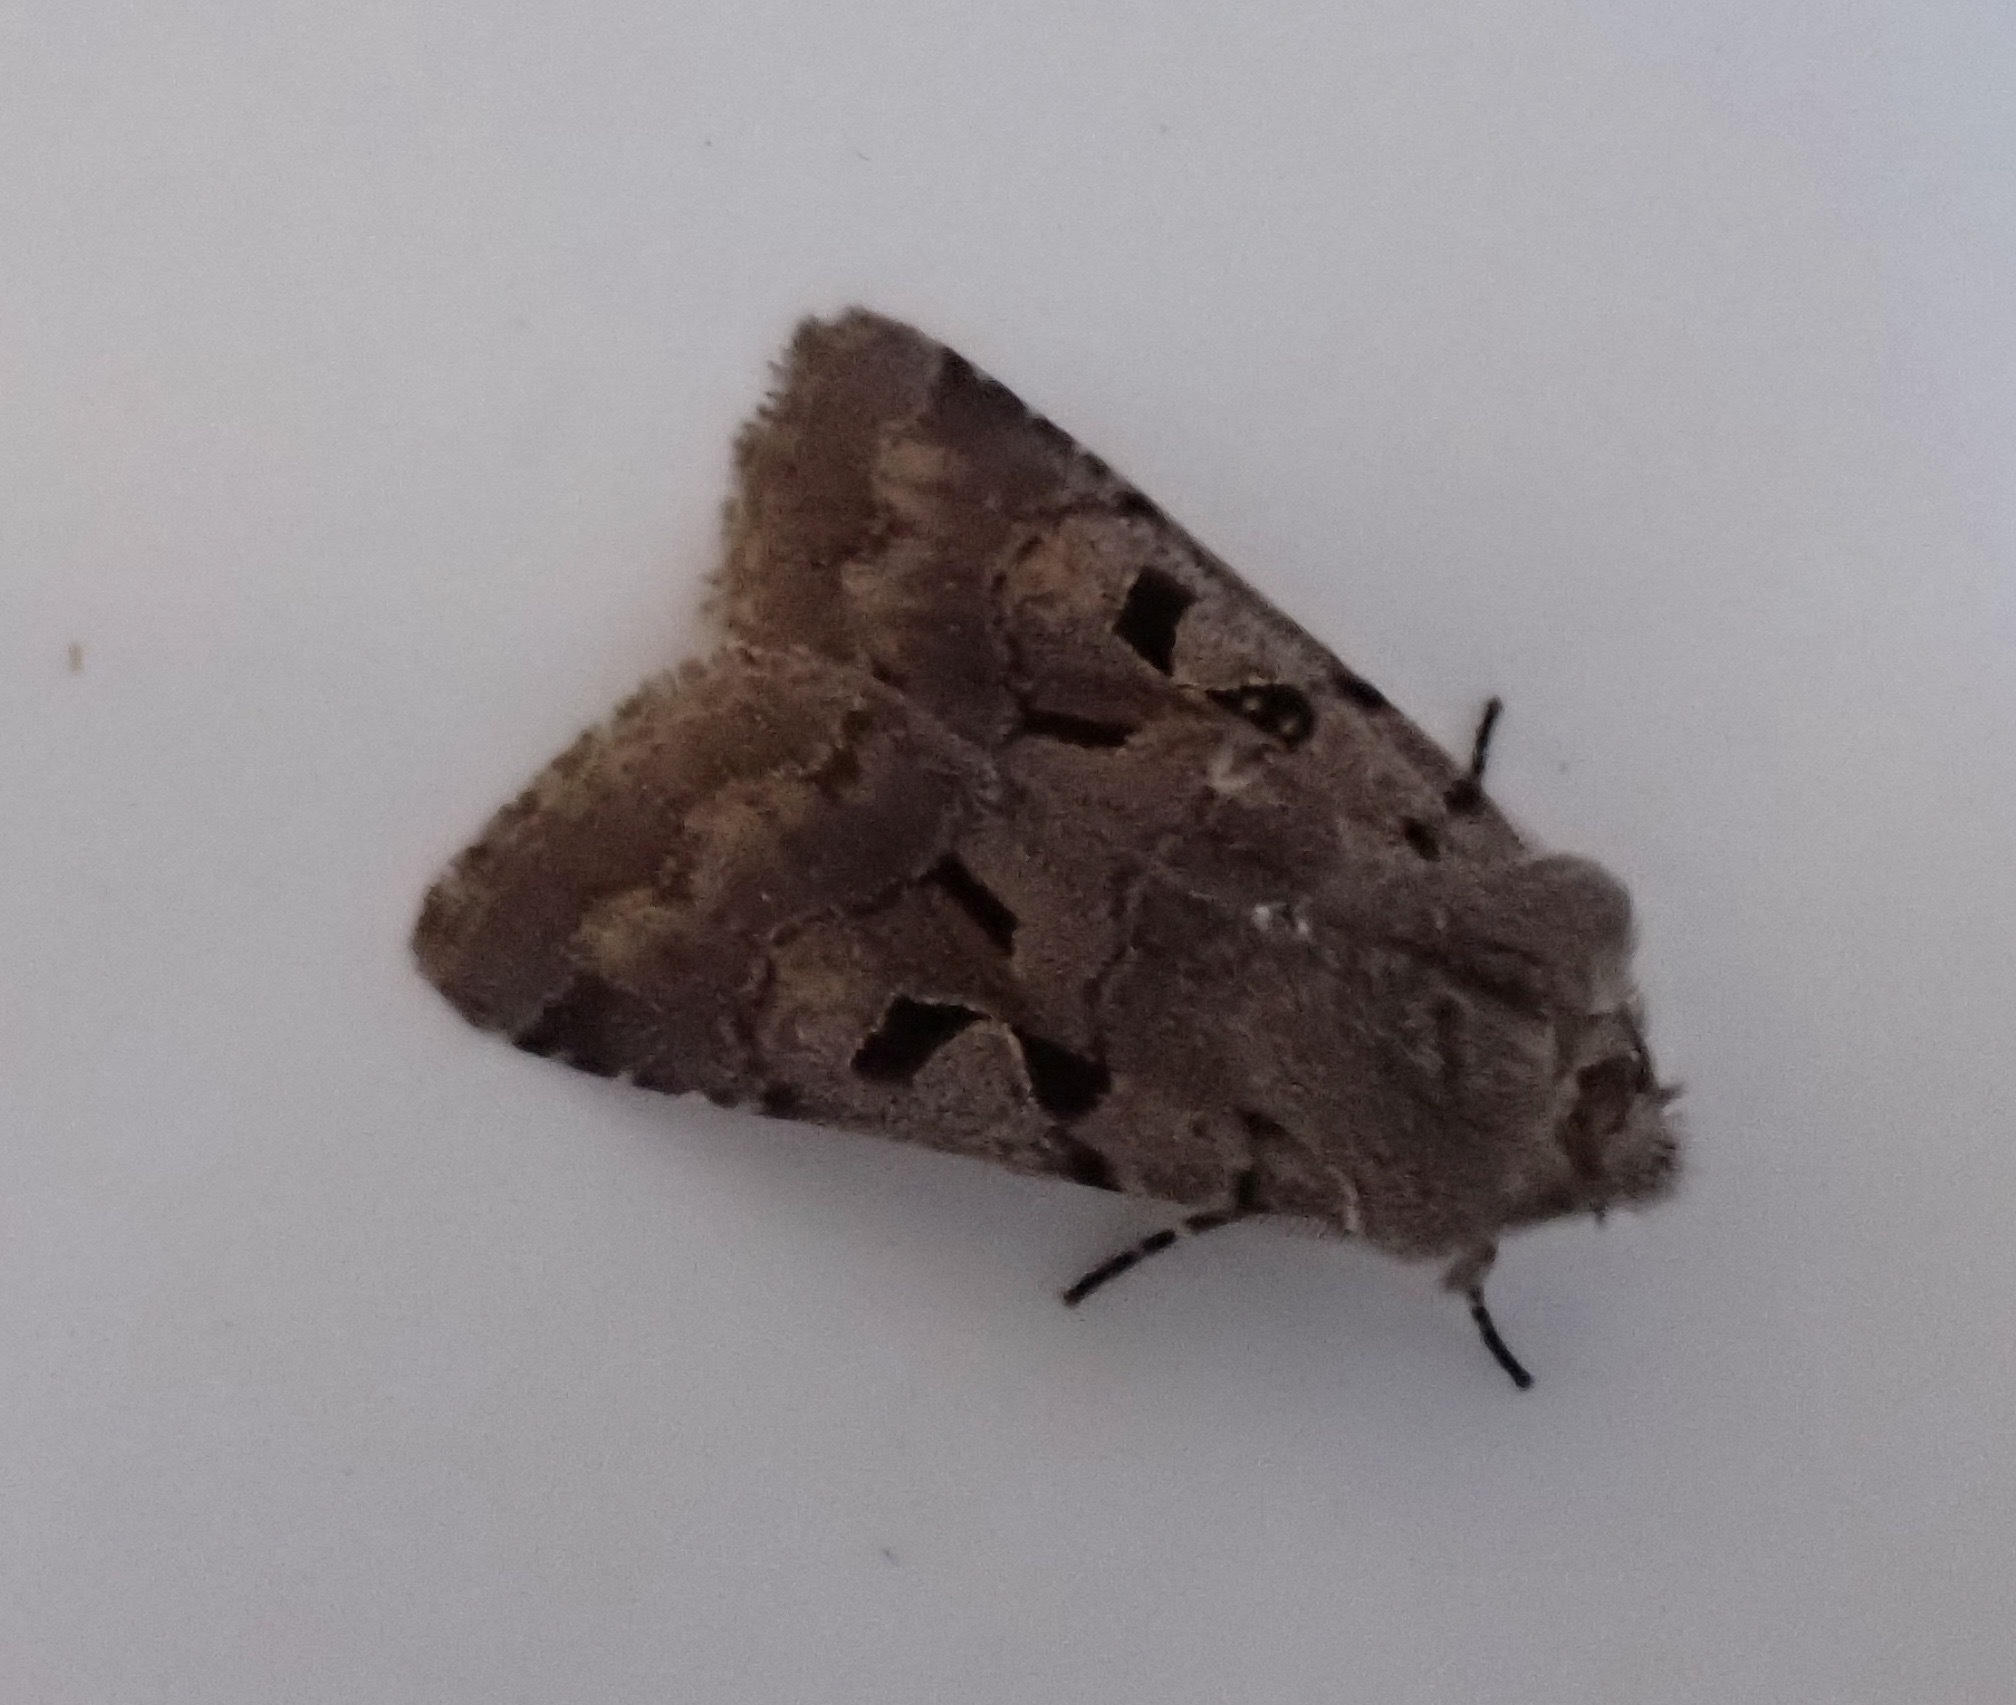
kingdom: Animalia
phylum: Arthropoda
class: Insecta
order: Lepidoptera
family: Noctuidae
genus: Orthosia
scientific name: Orthosia gothica
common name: Hebrew character
